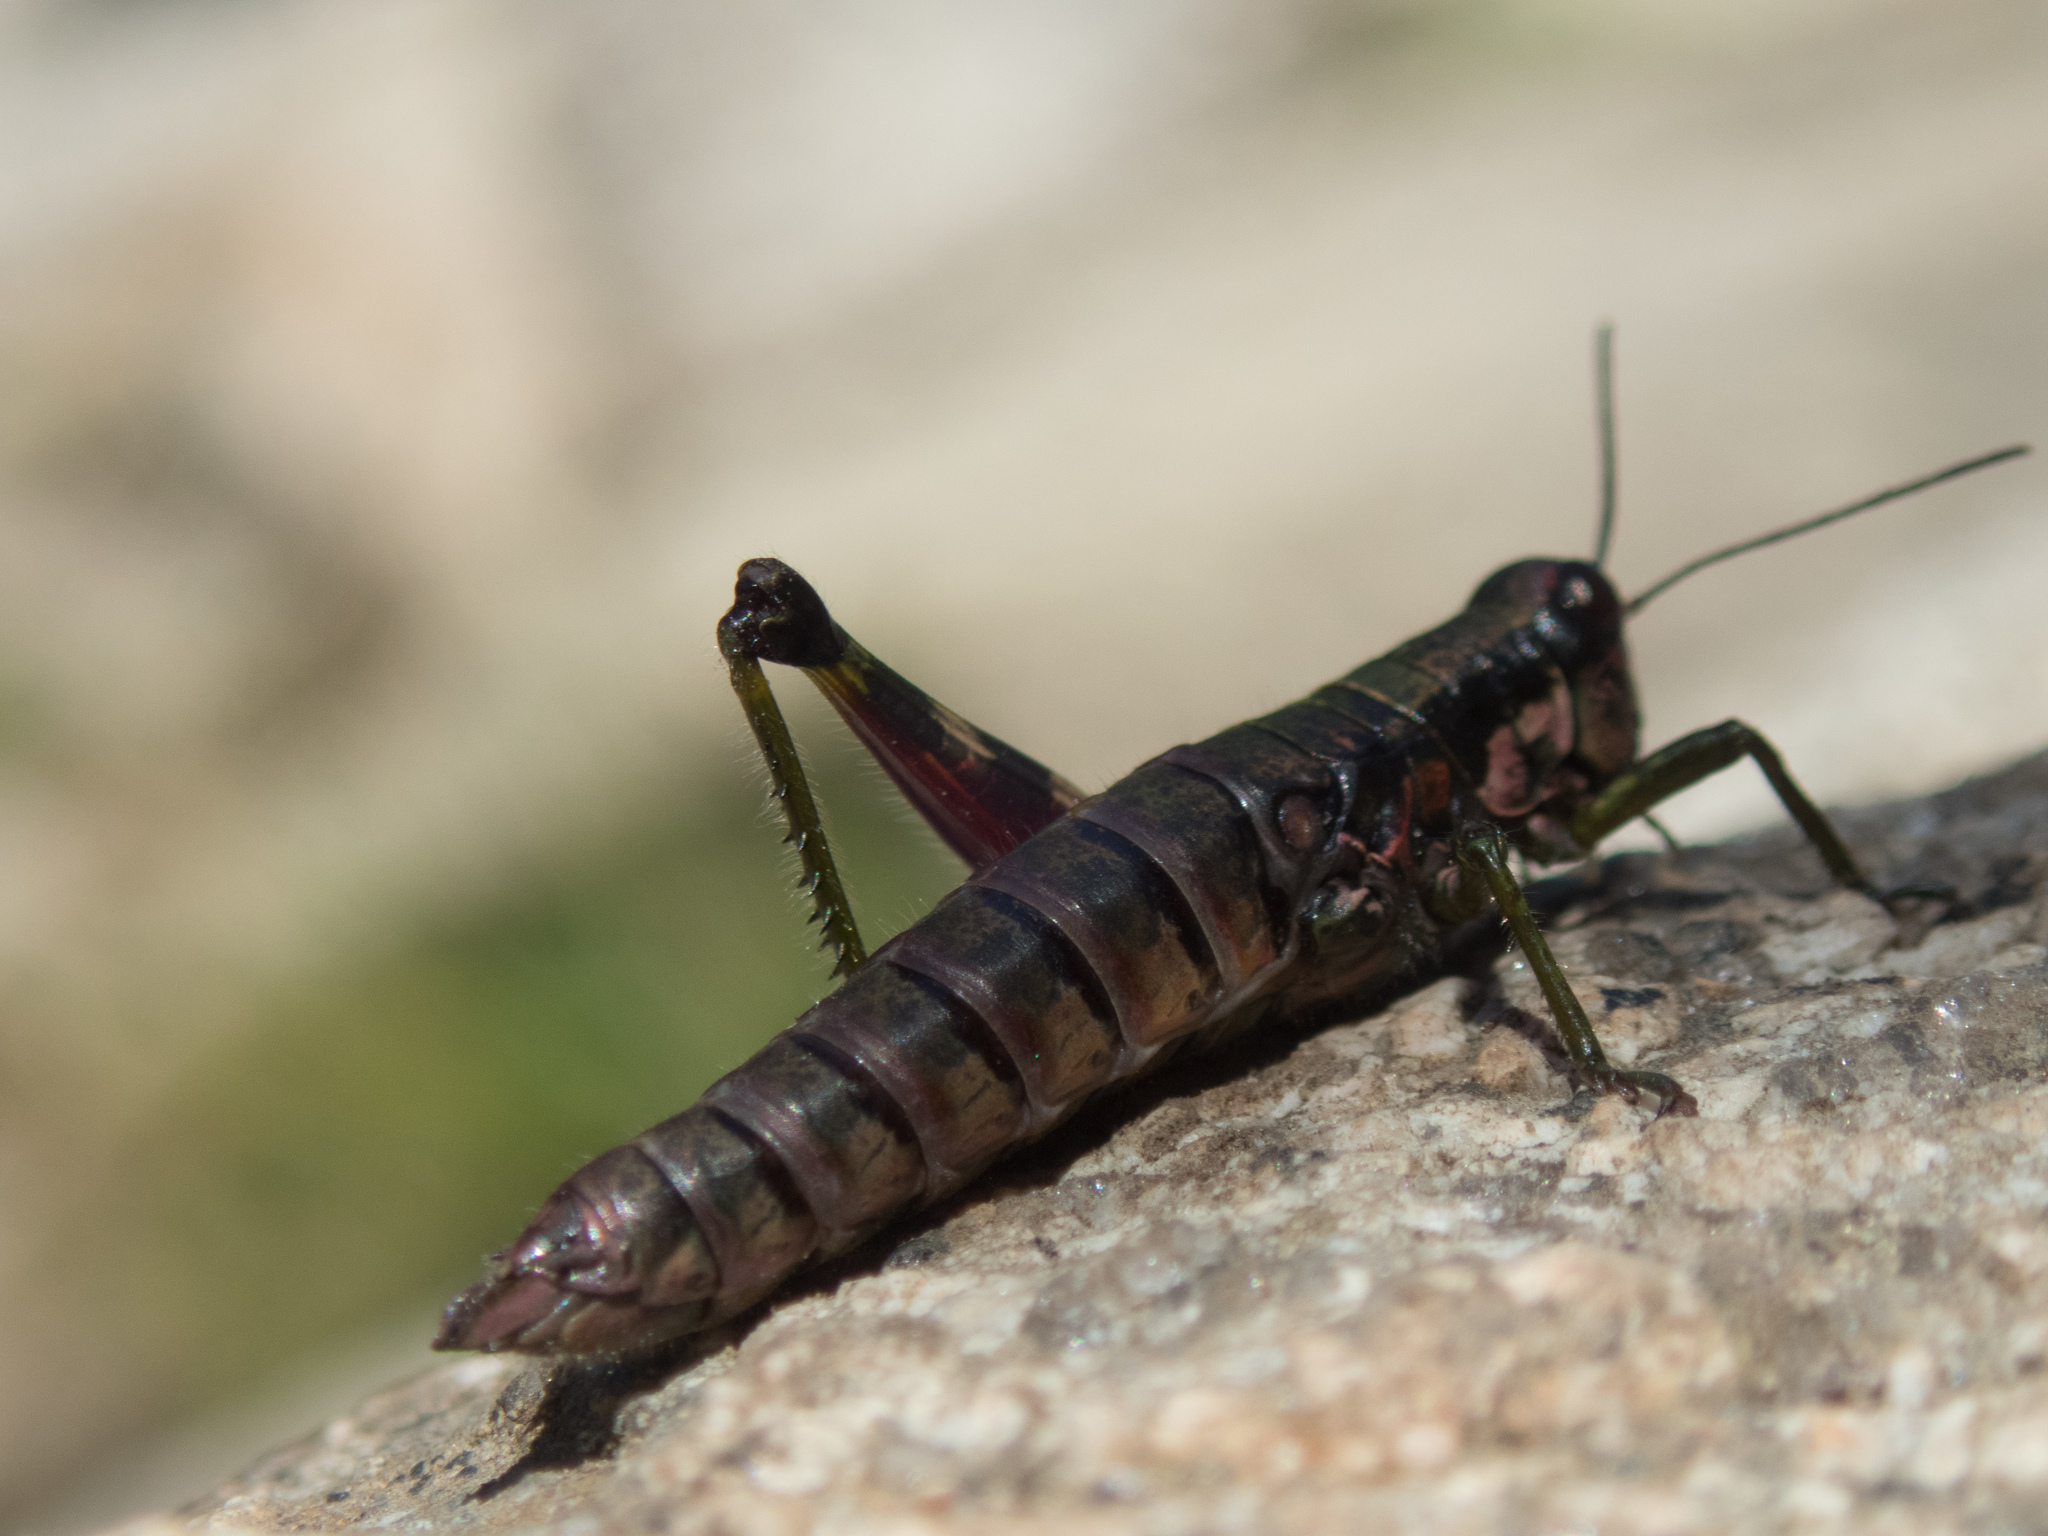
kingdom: Animalia
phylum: Arthropoda
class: Insecta
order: Orthoptera
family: Acrididae
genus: Booneacris
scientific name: Booneacris glacialis
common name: Wingless mountain grasshopper
